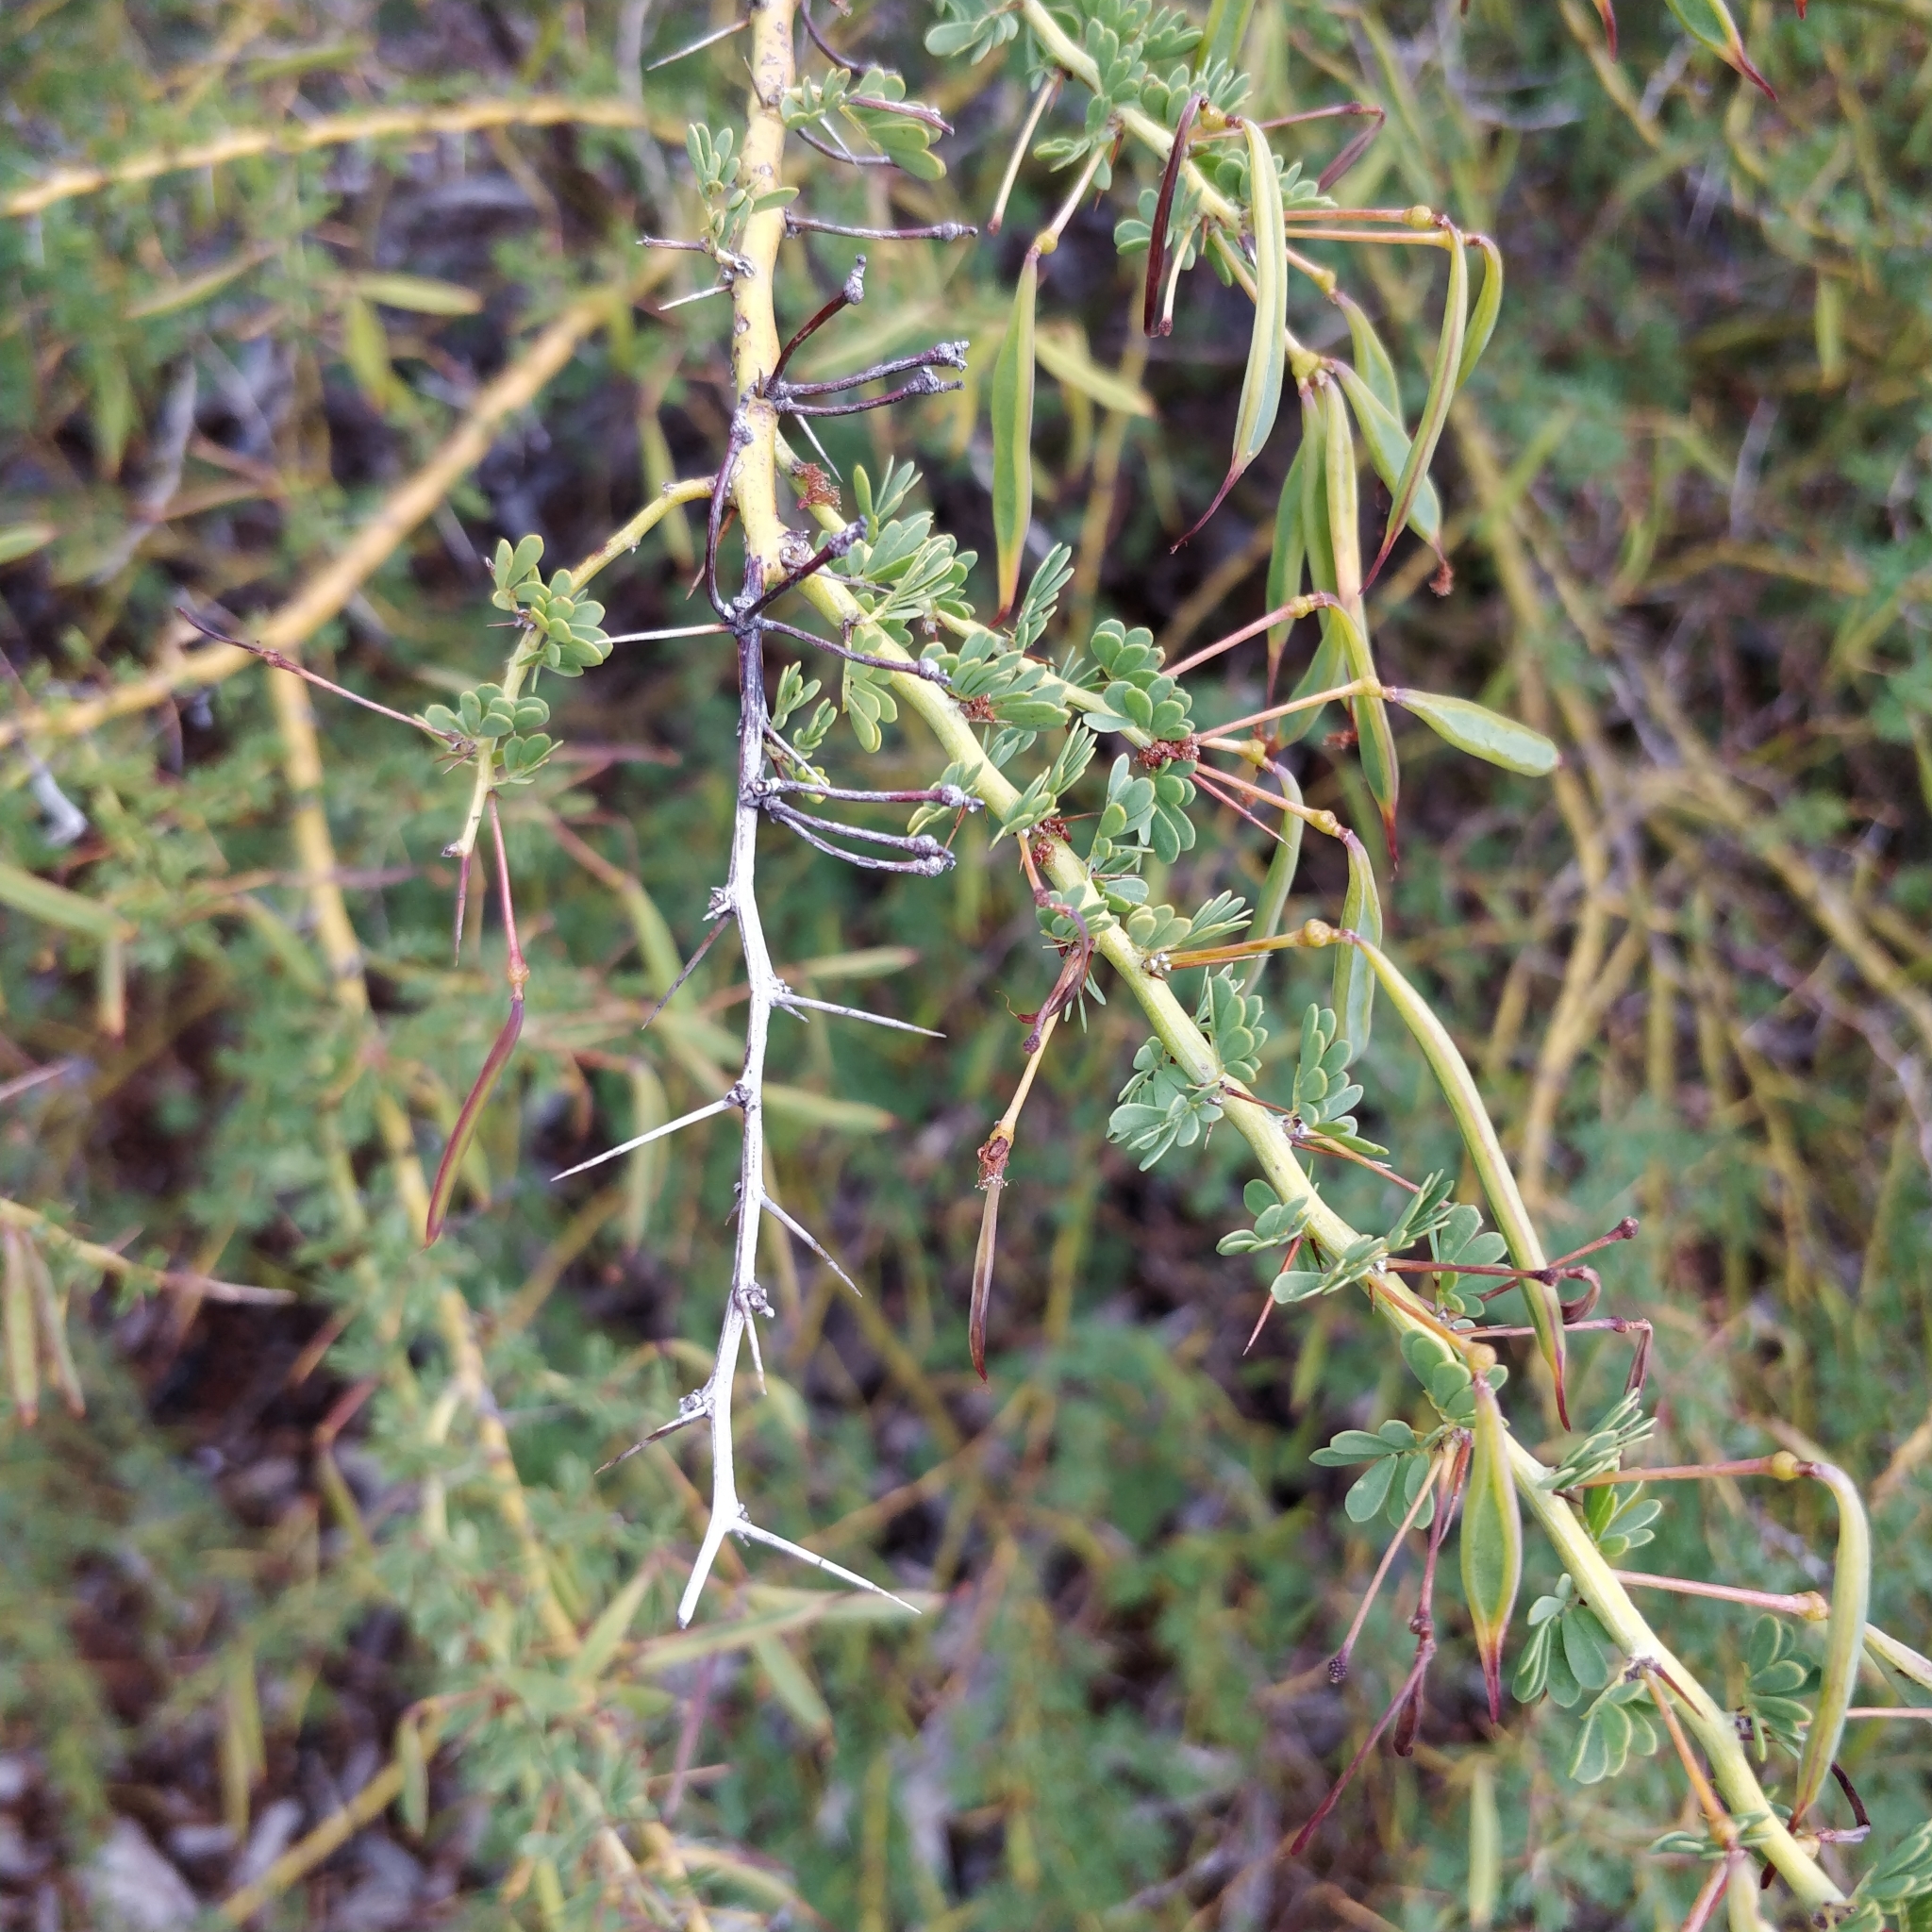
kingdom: Plantae
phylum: Tracheophyta
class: Magnoliopsida
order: Fabales
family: Fabaceae
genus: Acacia
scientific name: Acacia pulchella
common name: Prickly moses
